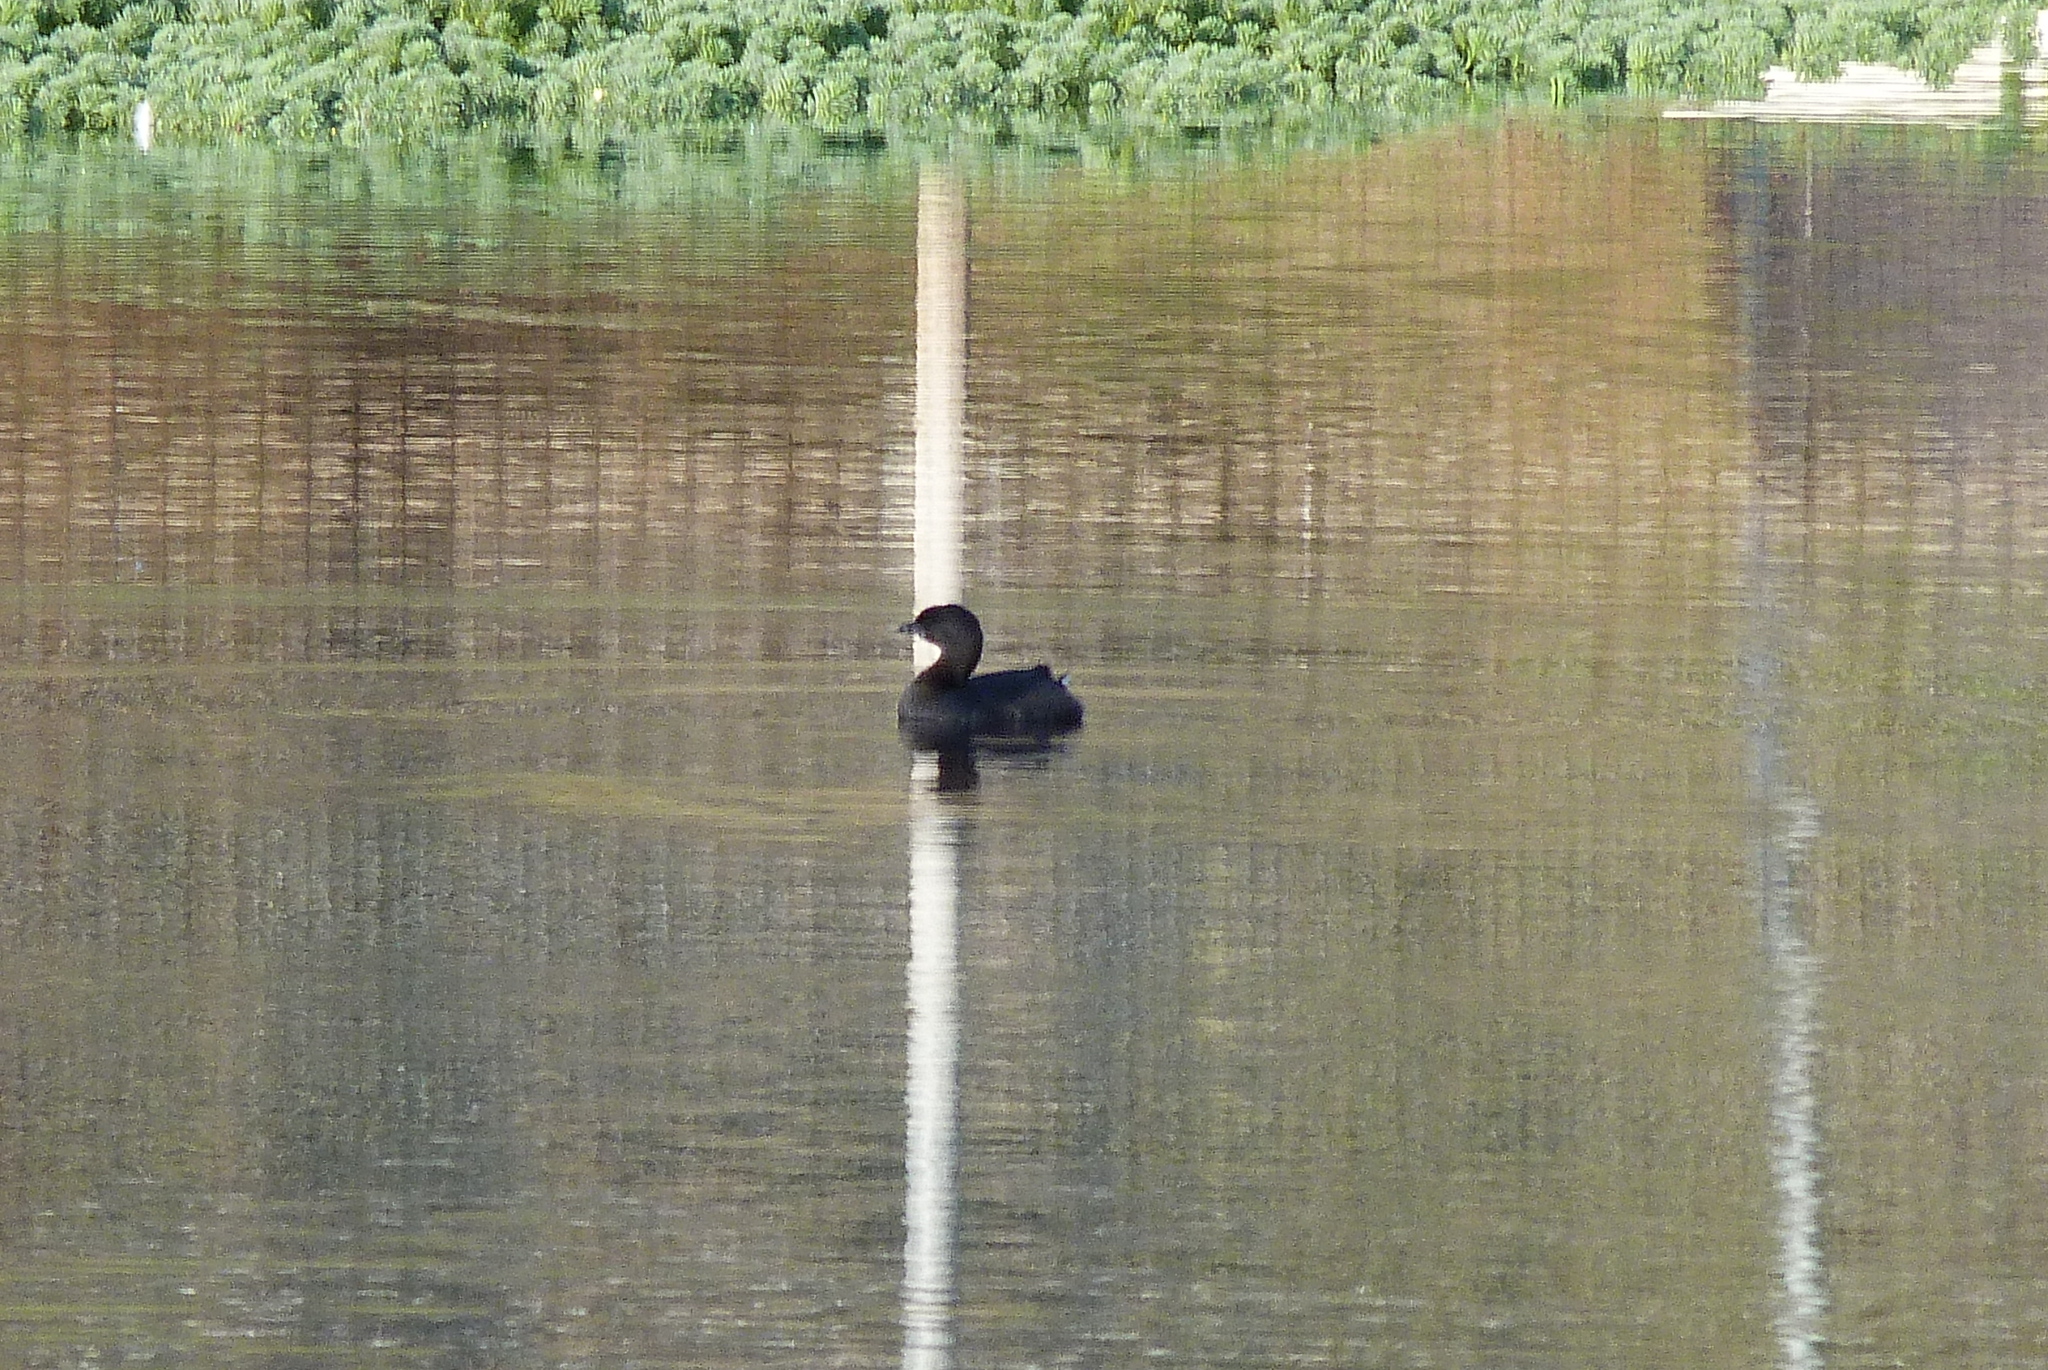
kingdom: Animalia
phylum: Chordata
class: Aves
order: Podicipediformes
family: Podicipedidae
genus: Podilymbus
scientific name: Podilymbus podiceps
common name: Pied-billed grebe
